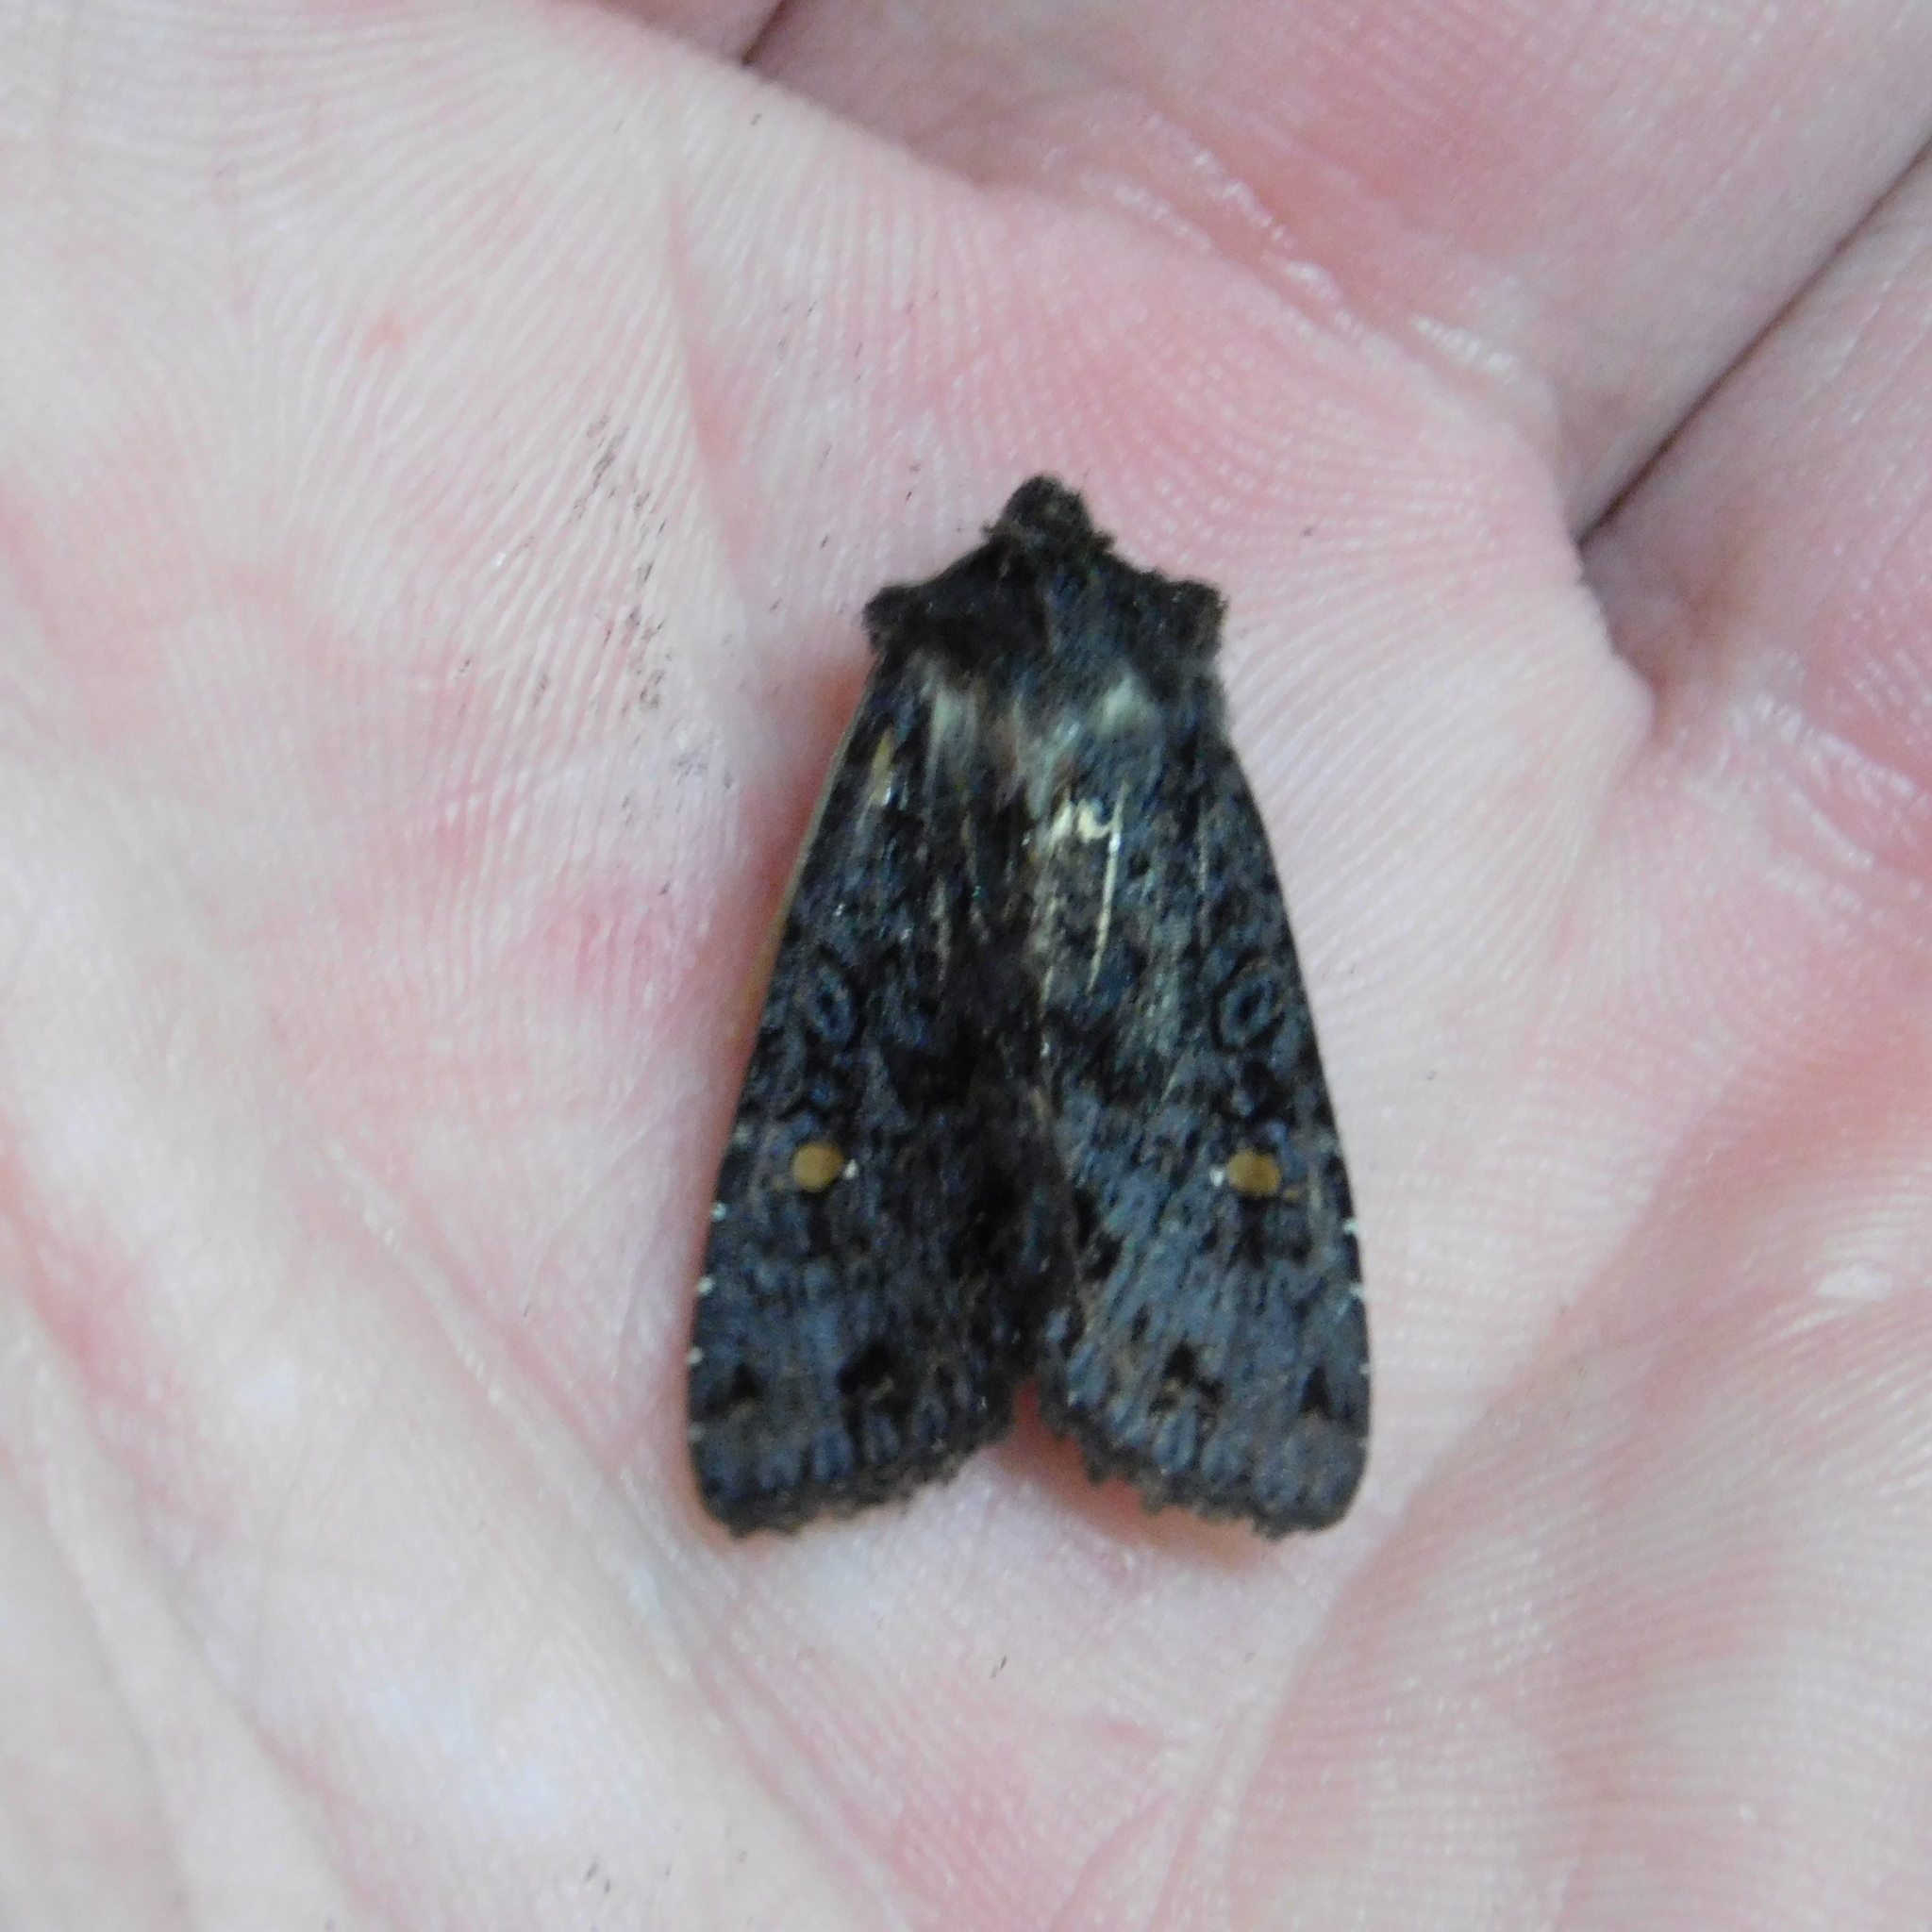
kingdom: Animalia
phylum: Arthropoda
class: Insecta
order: Lepidoptera
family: Noctuidae
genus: Meterana
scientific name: Meterana vitiosa
